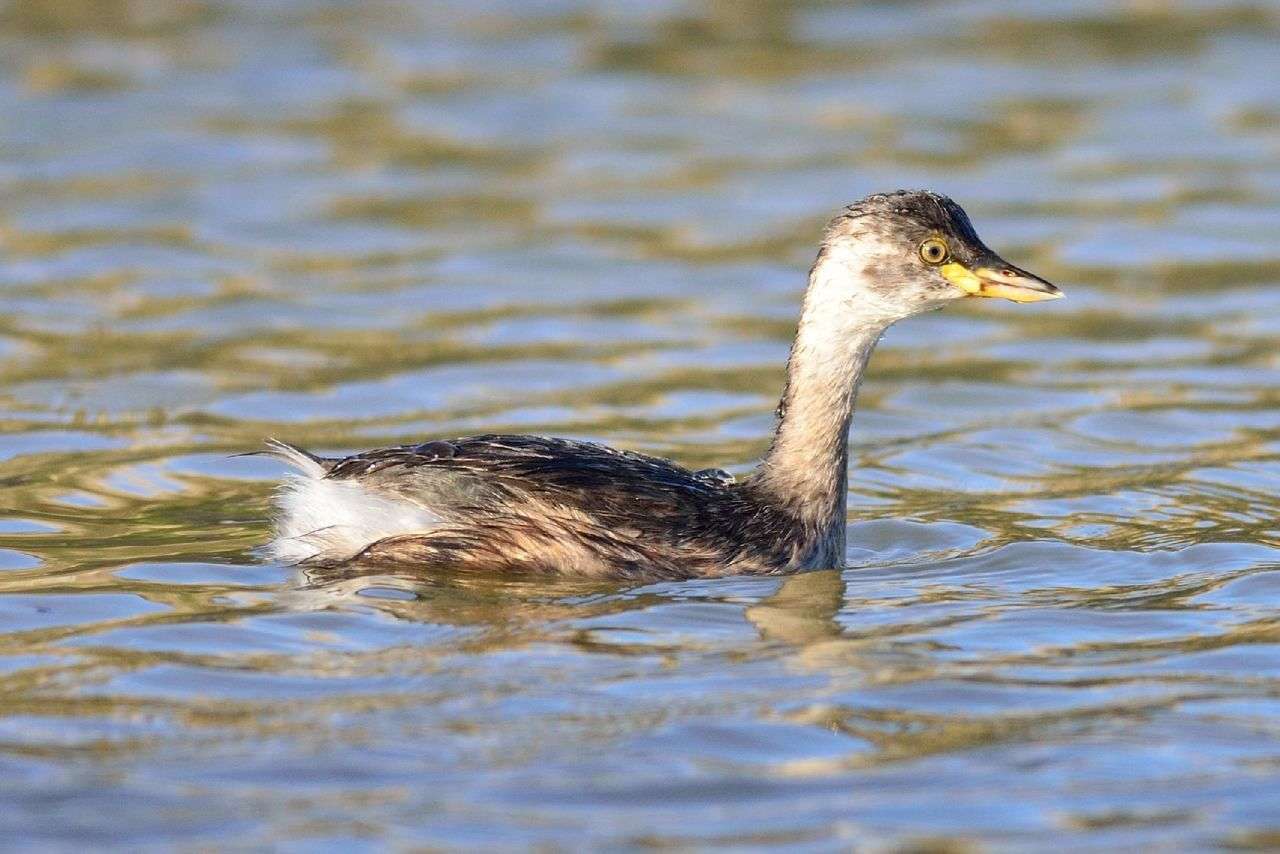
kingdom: Animalia
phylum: Chordata
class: Aves
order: Podicipediformes
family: Podicipedidae
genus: Tachybaptus
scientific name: Tachybaptus novaehollandiae
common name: Australasian grebe
